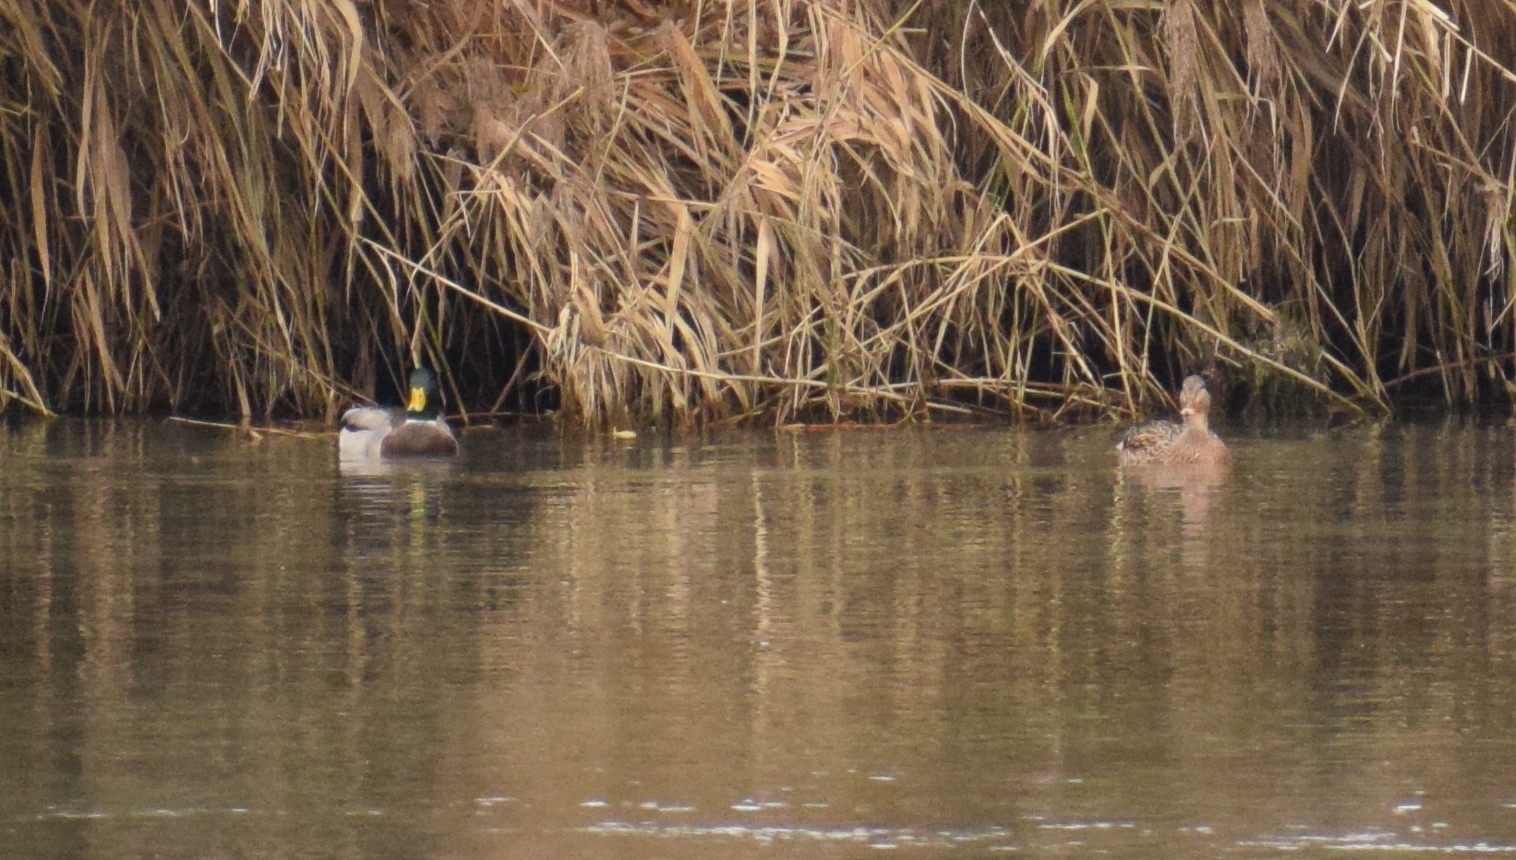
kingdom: Animalia
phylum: Chordata
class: Aves
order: Anseriformes
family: Anatidae
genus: Anas
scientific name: Anas platyrhynchos
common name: Mallard
